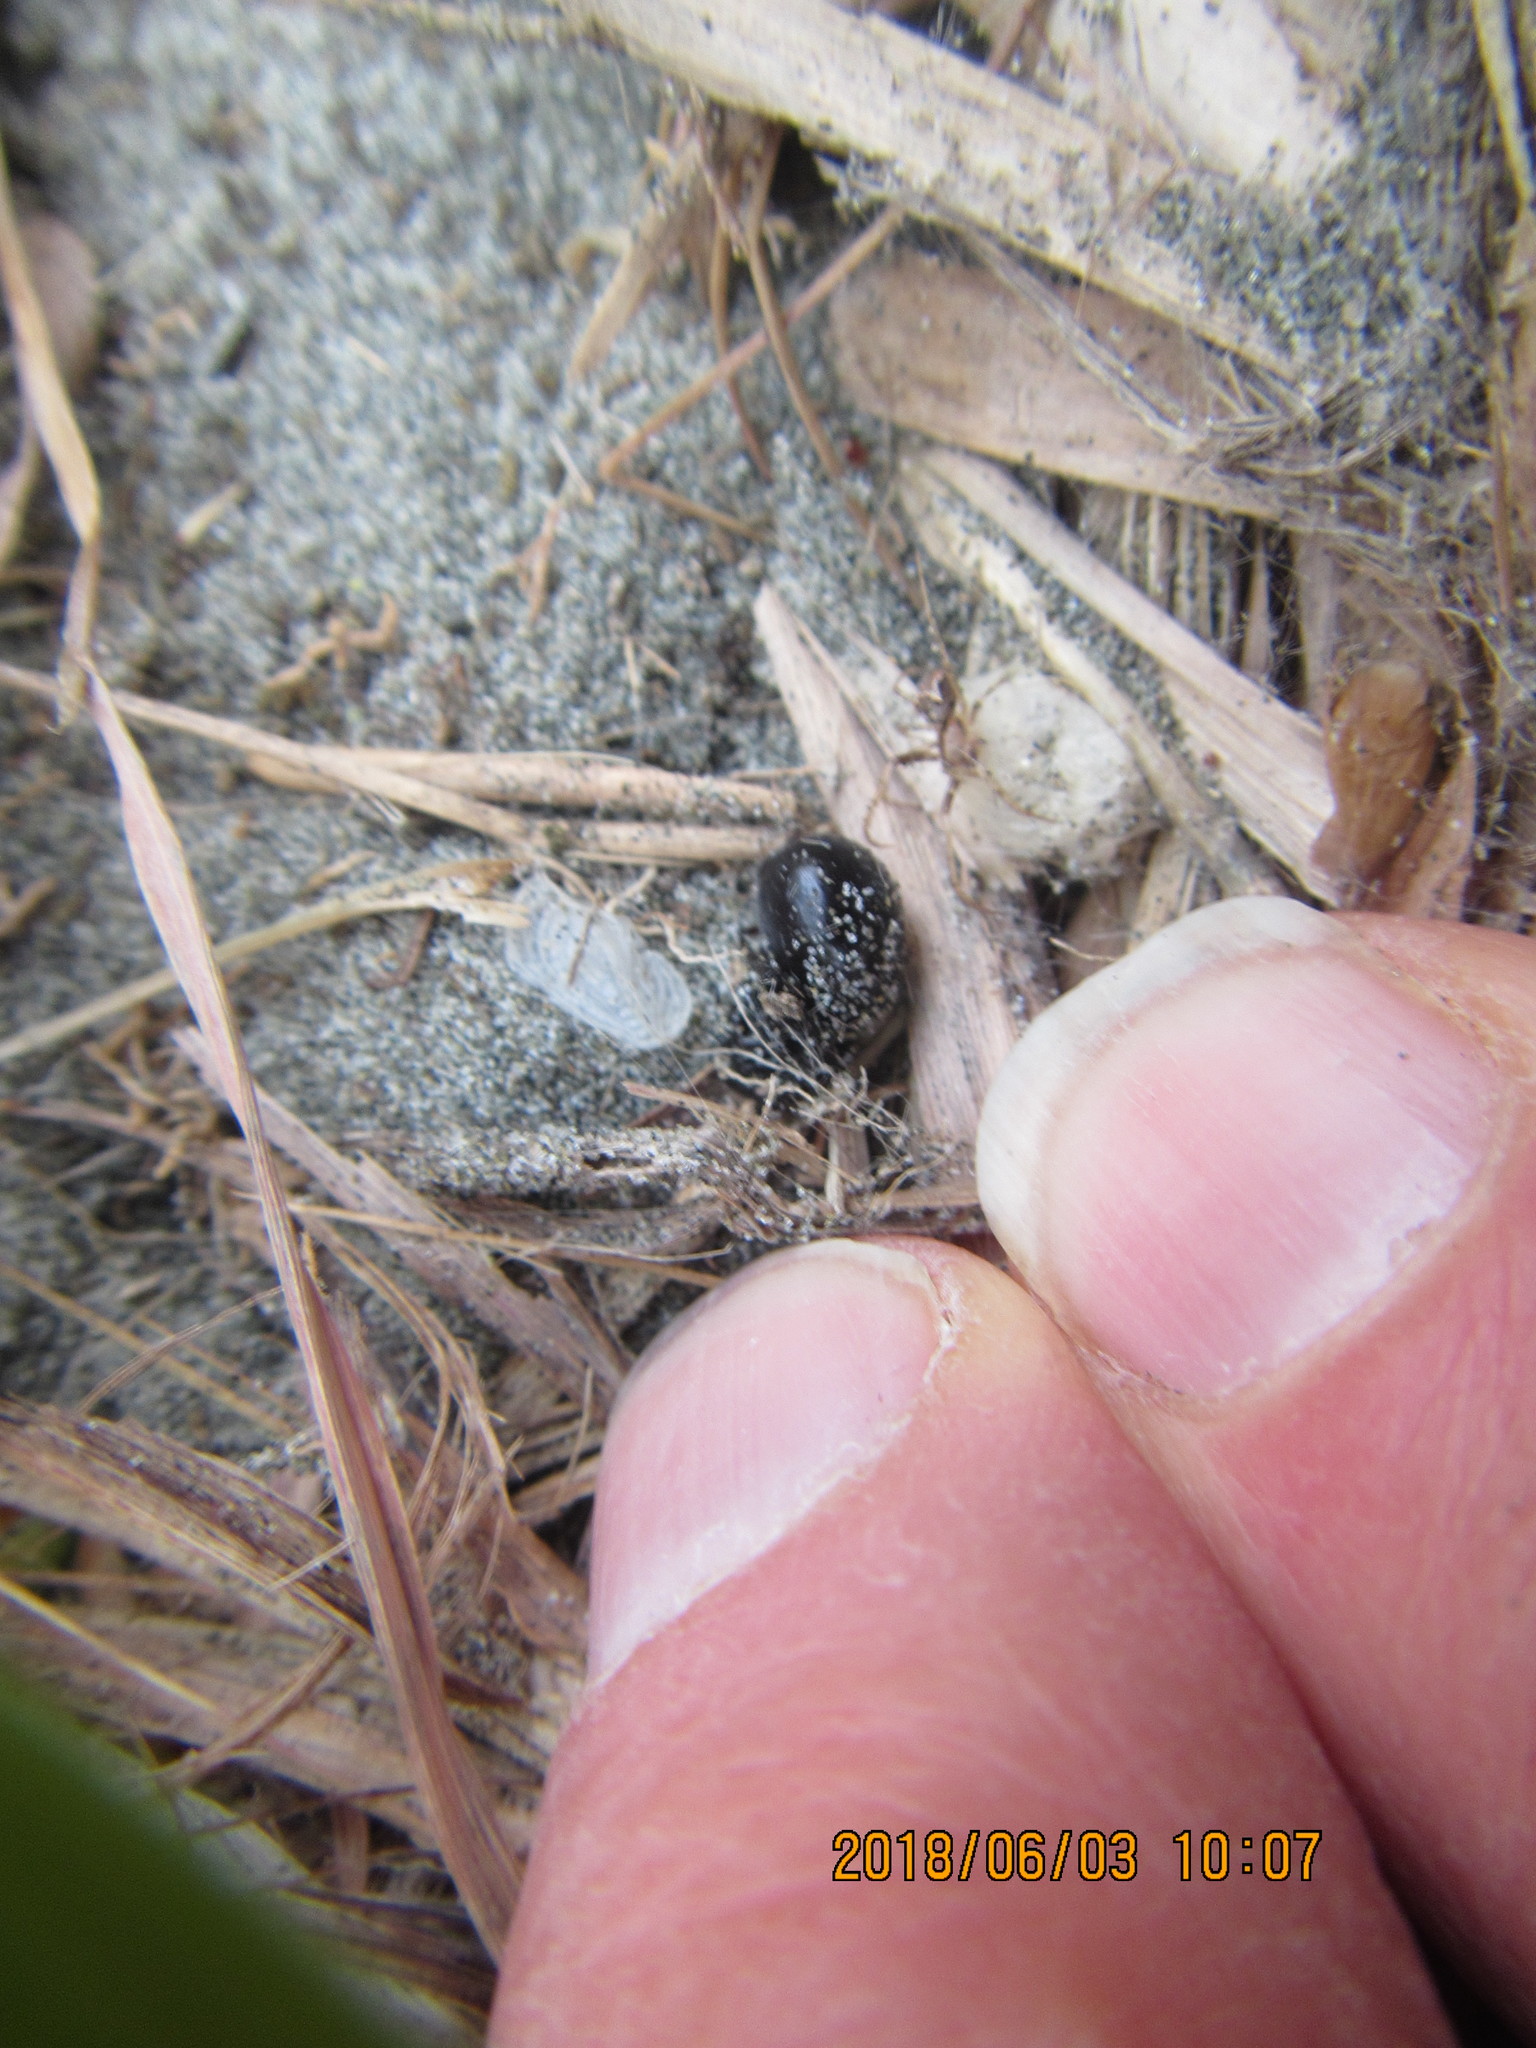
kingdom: Animalia
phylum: Arthropoda
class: Arachnida
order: Araneae
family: Mimetidae
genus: Australomimetus
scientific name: Australomimetus hartleyensis
